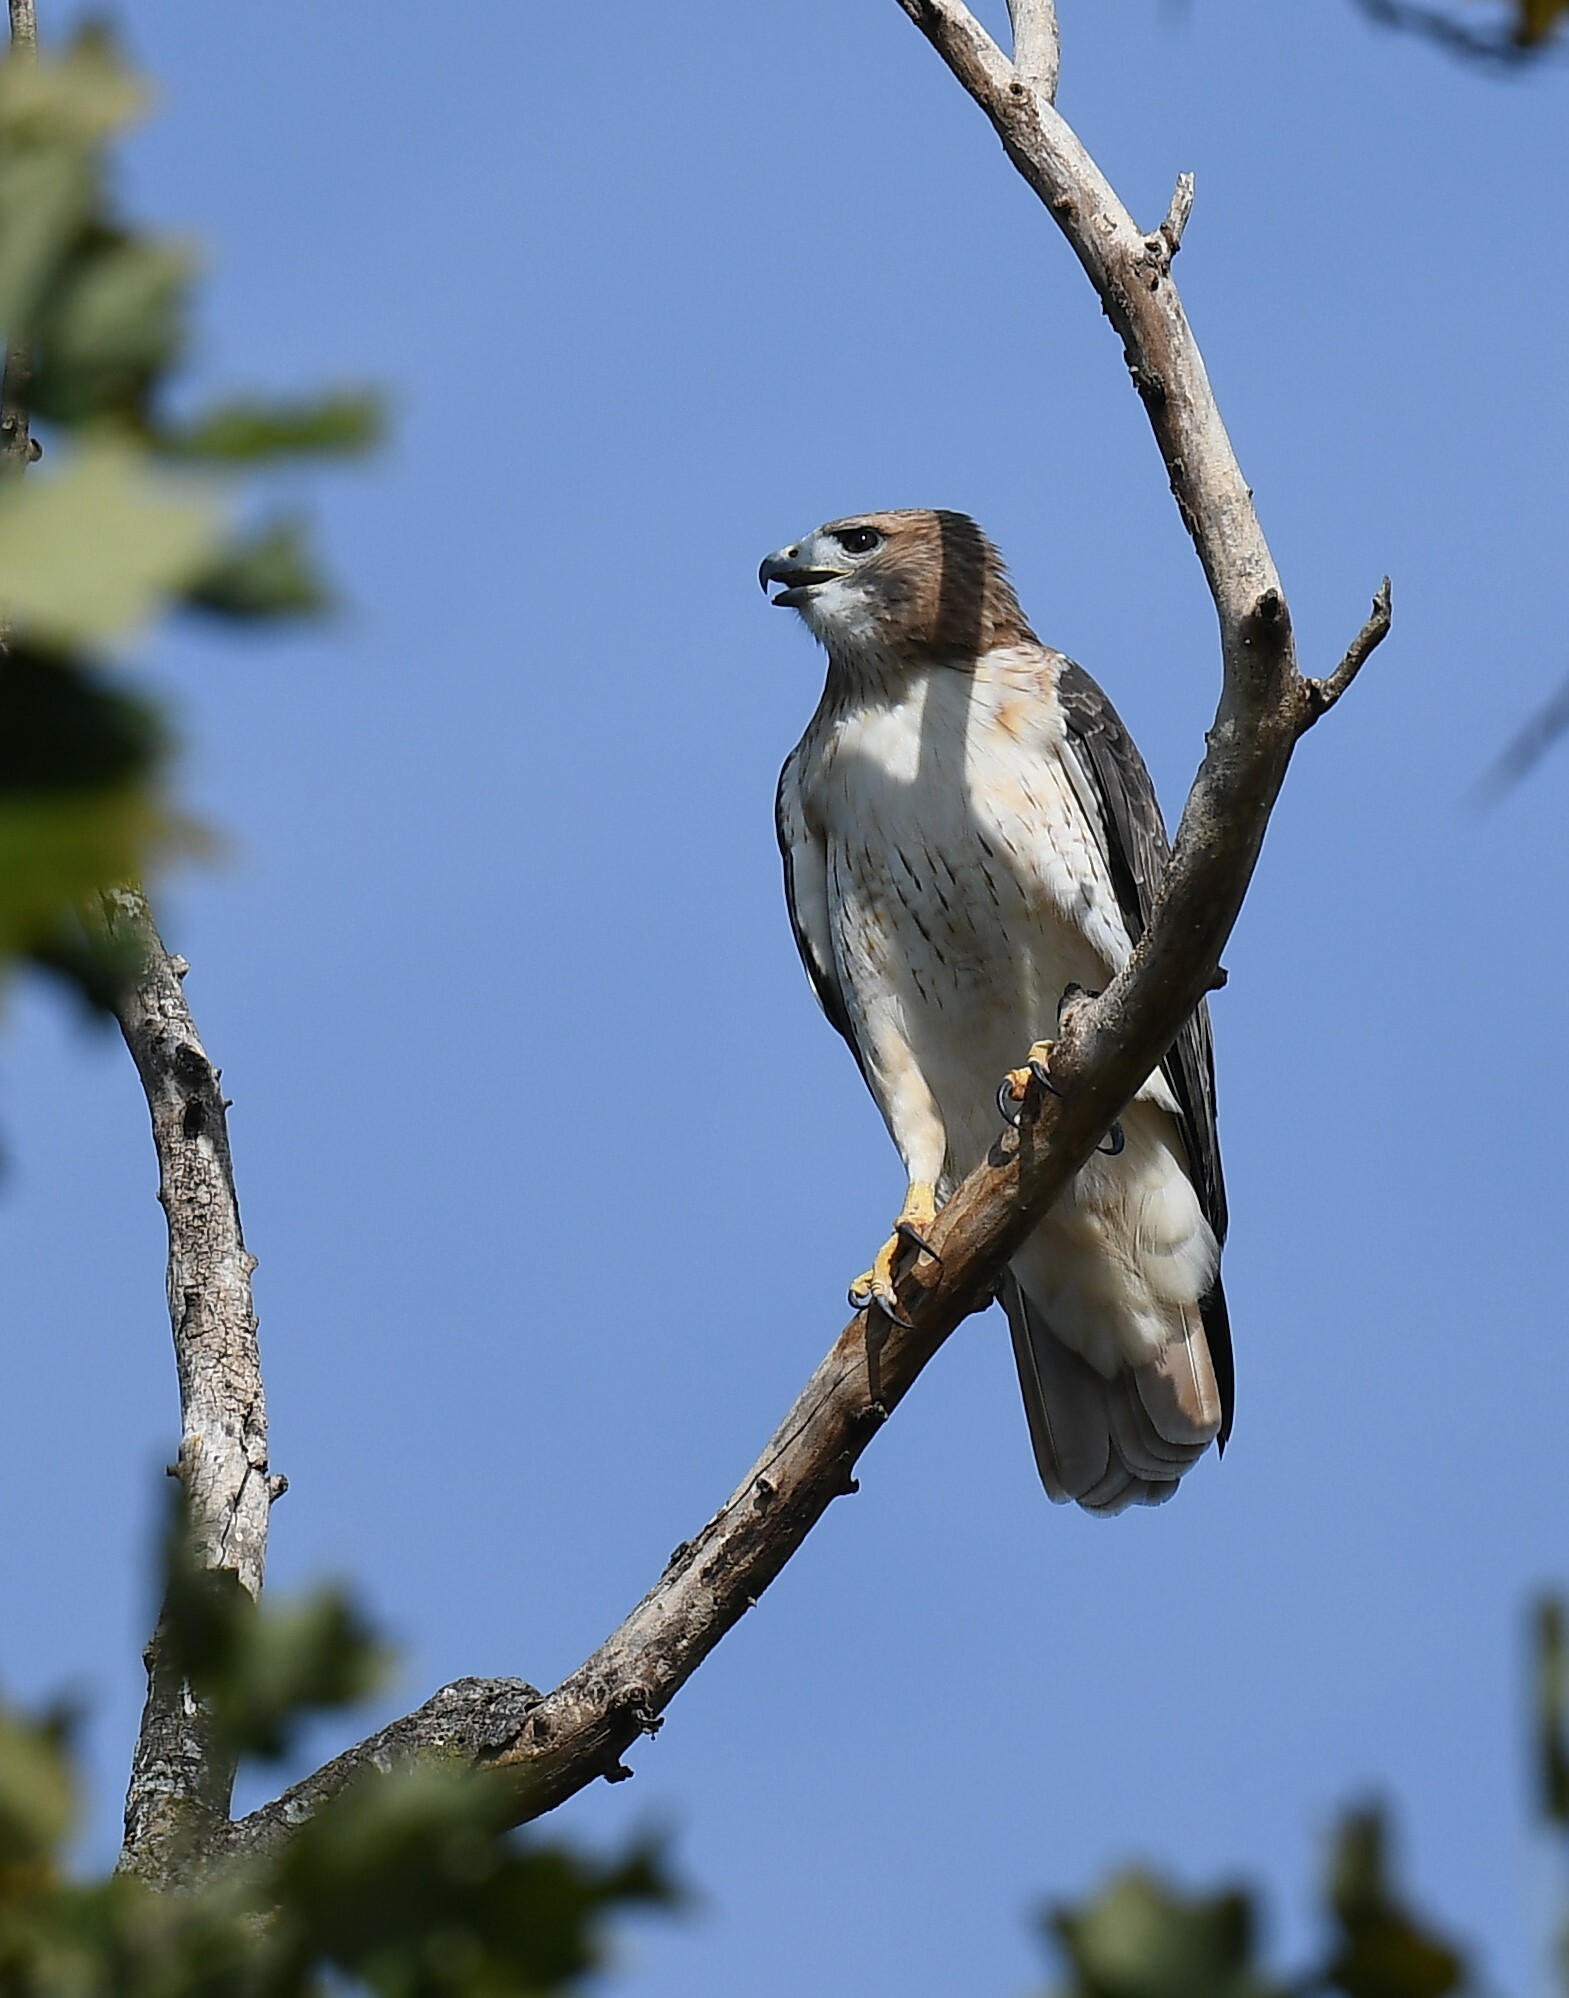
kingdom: Animalia
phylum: Chordata
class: Aves
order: Accipitriformes
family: Accipitridae
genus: Buteo
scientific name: Buteo jamaicensis
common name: Red-tailed hawk
